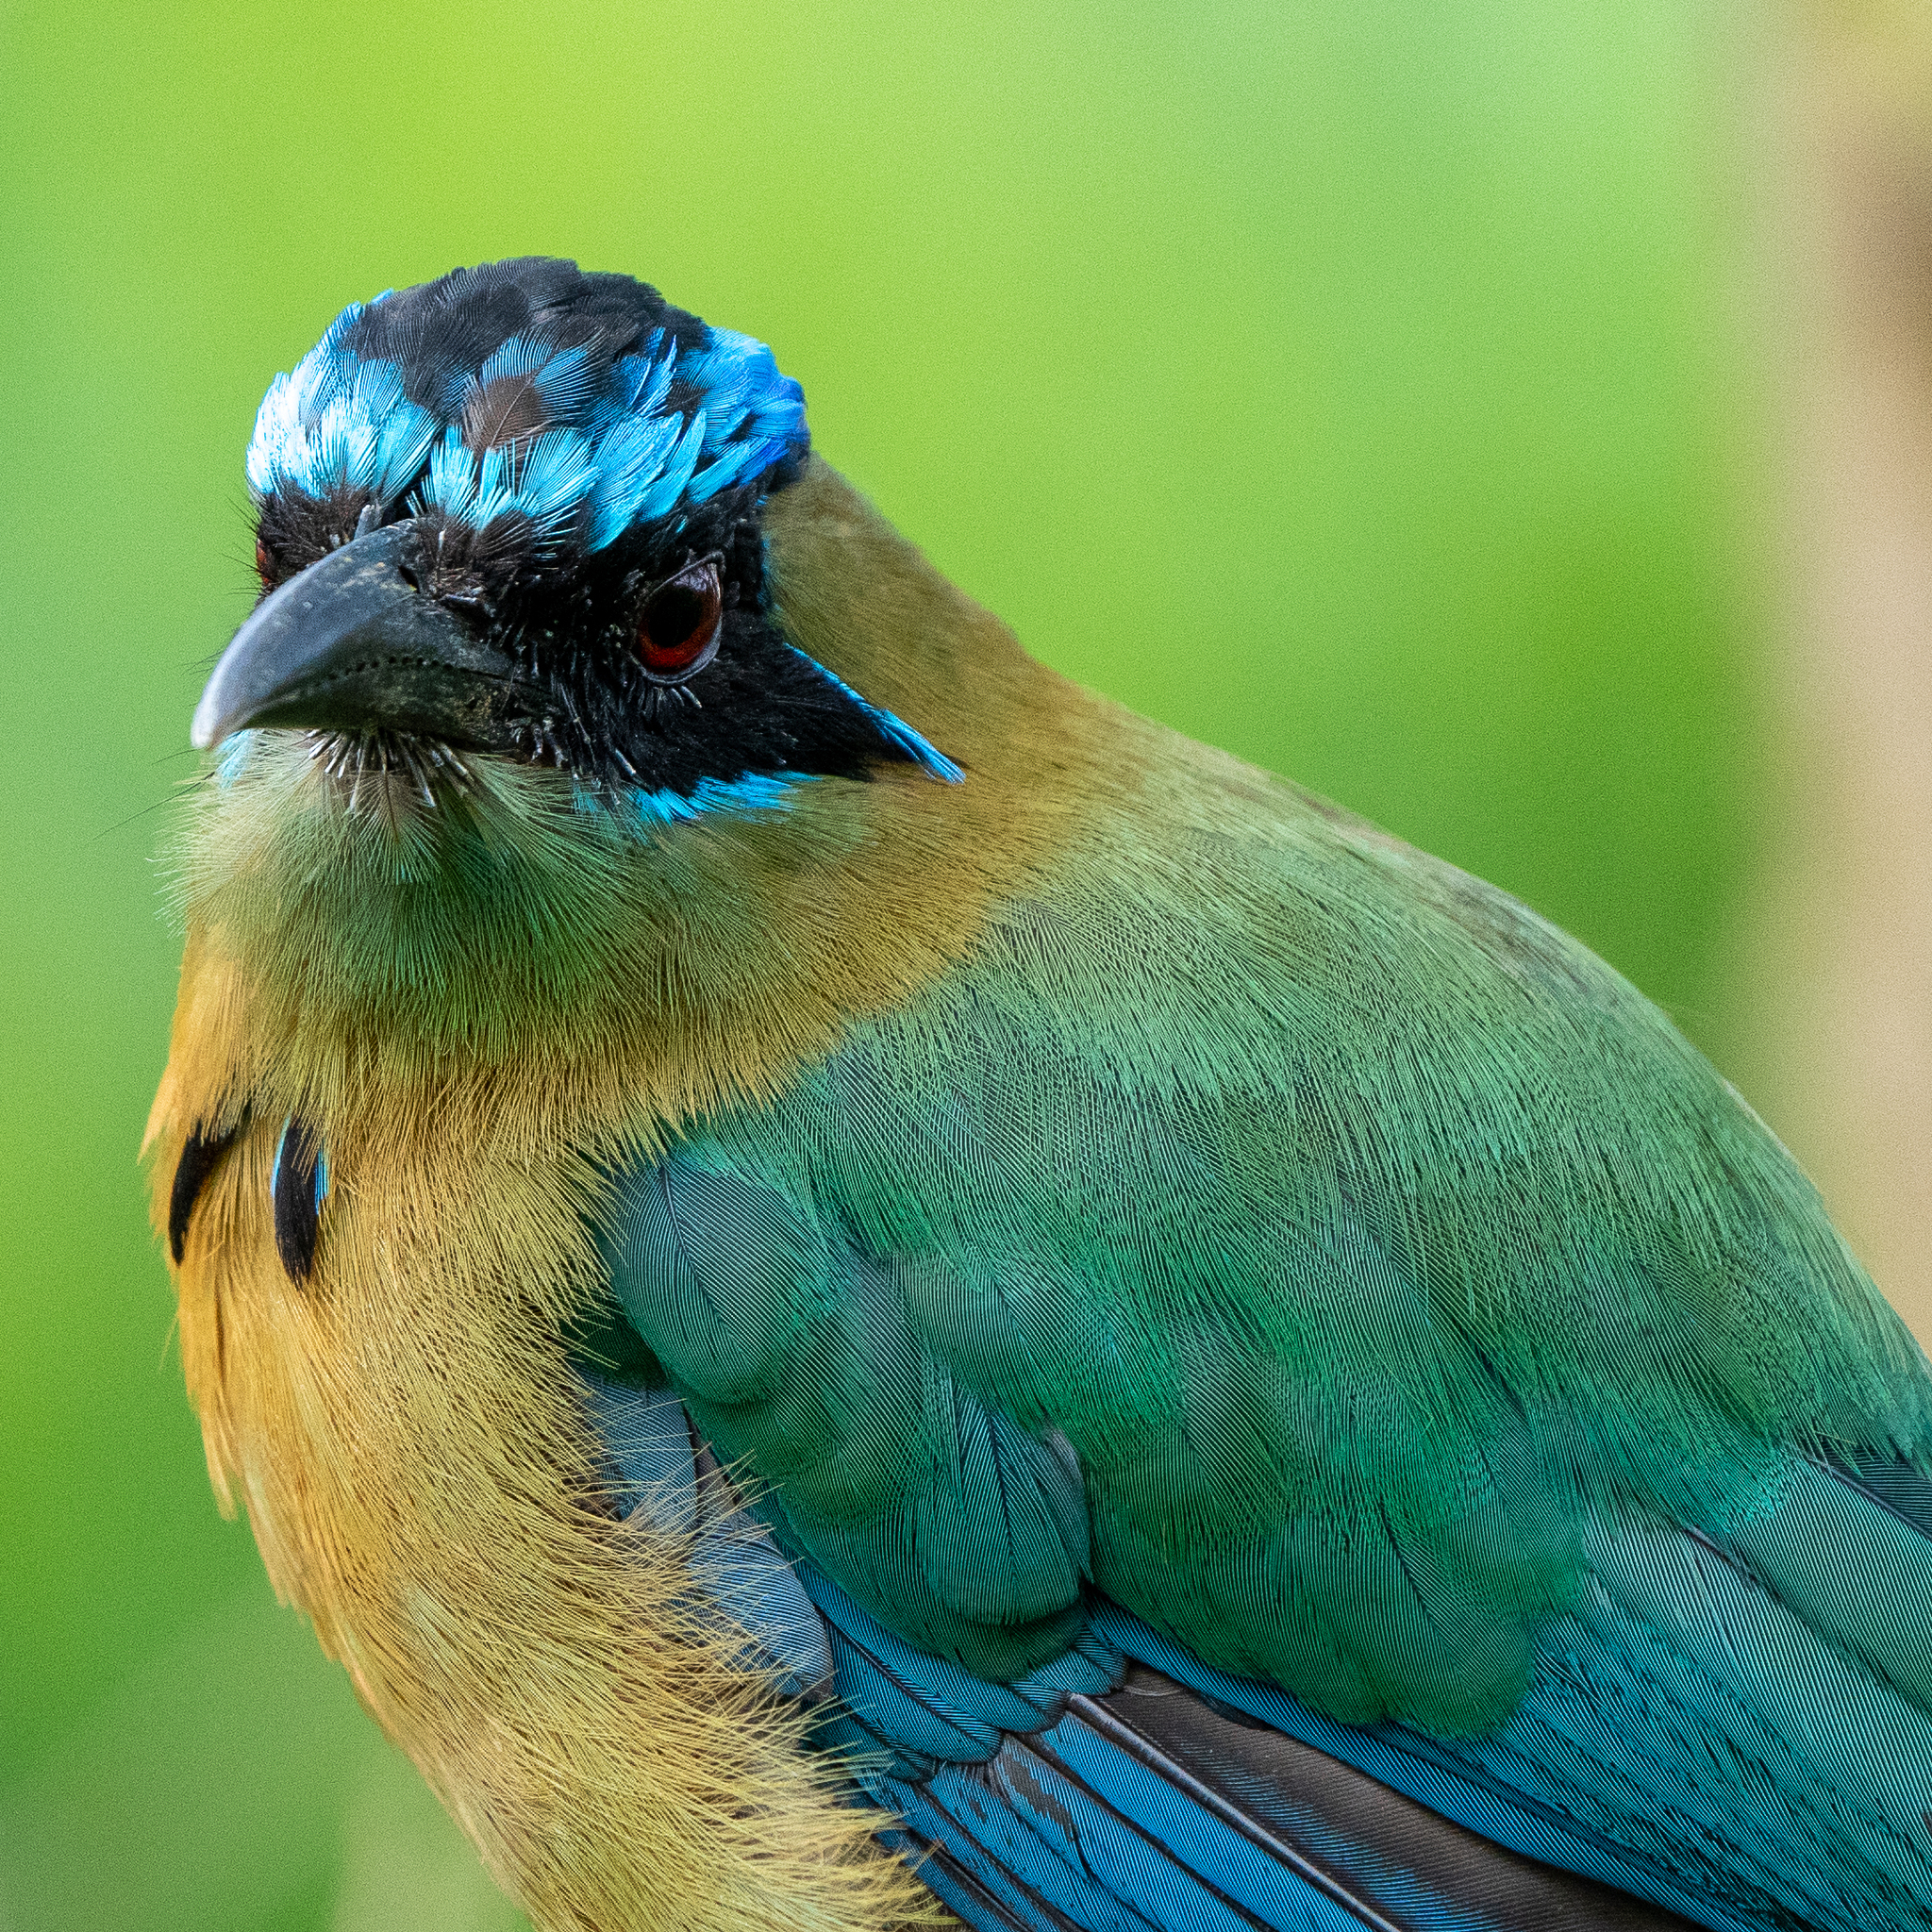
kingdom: Animalia
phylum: Chordata
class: Aves
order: Coraciiformes
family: Momotidae
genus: Momotus
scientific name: Momotus lessonii
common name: Lesson's motmot
